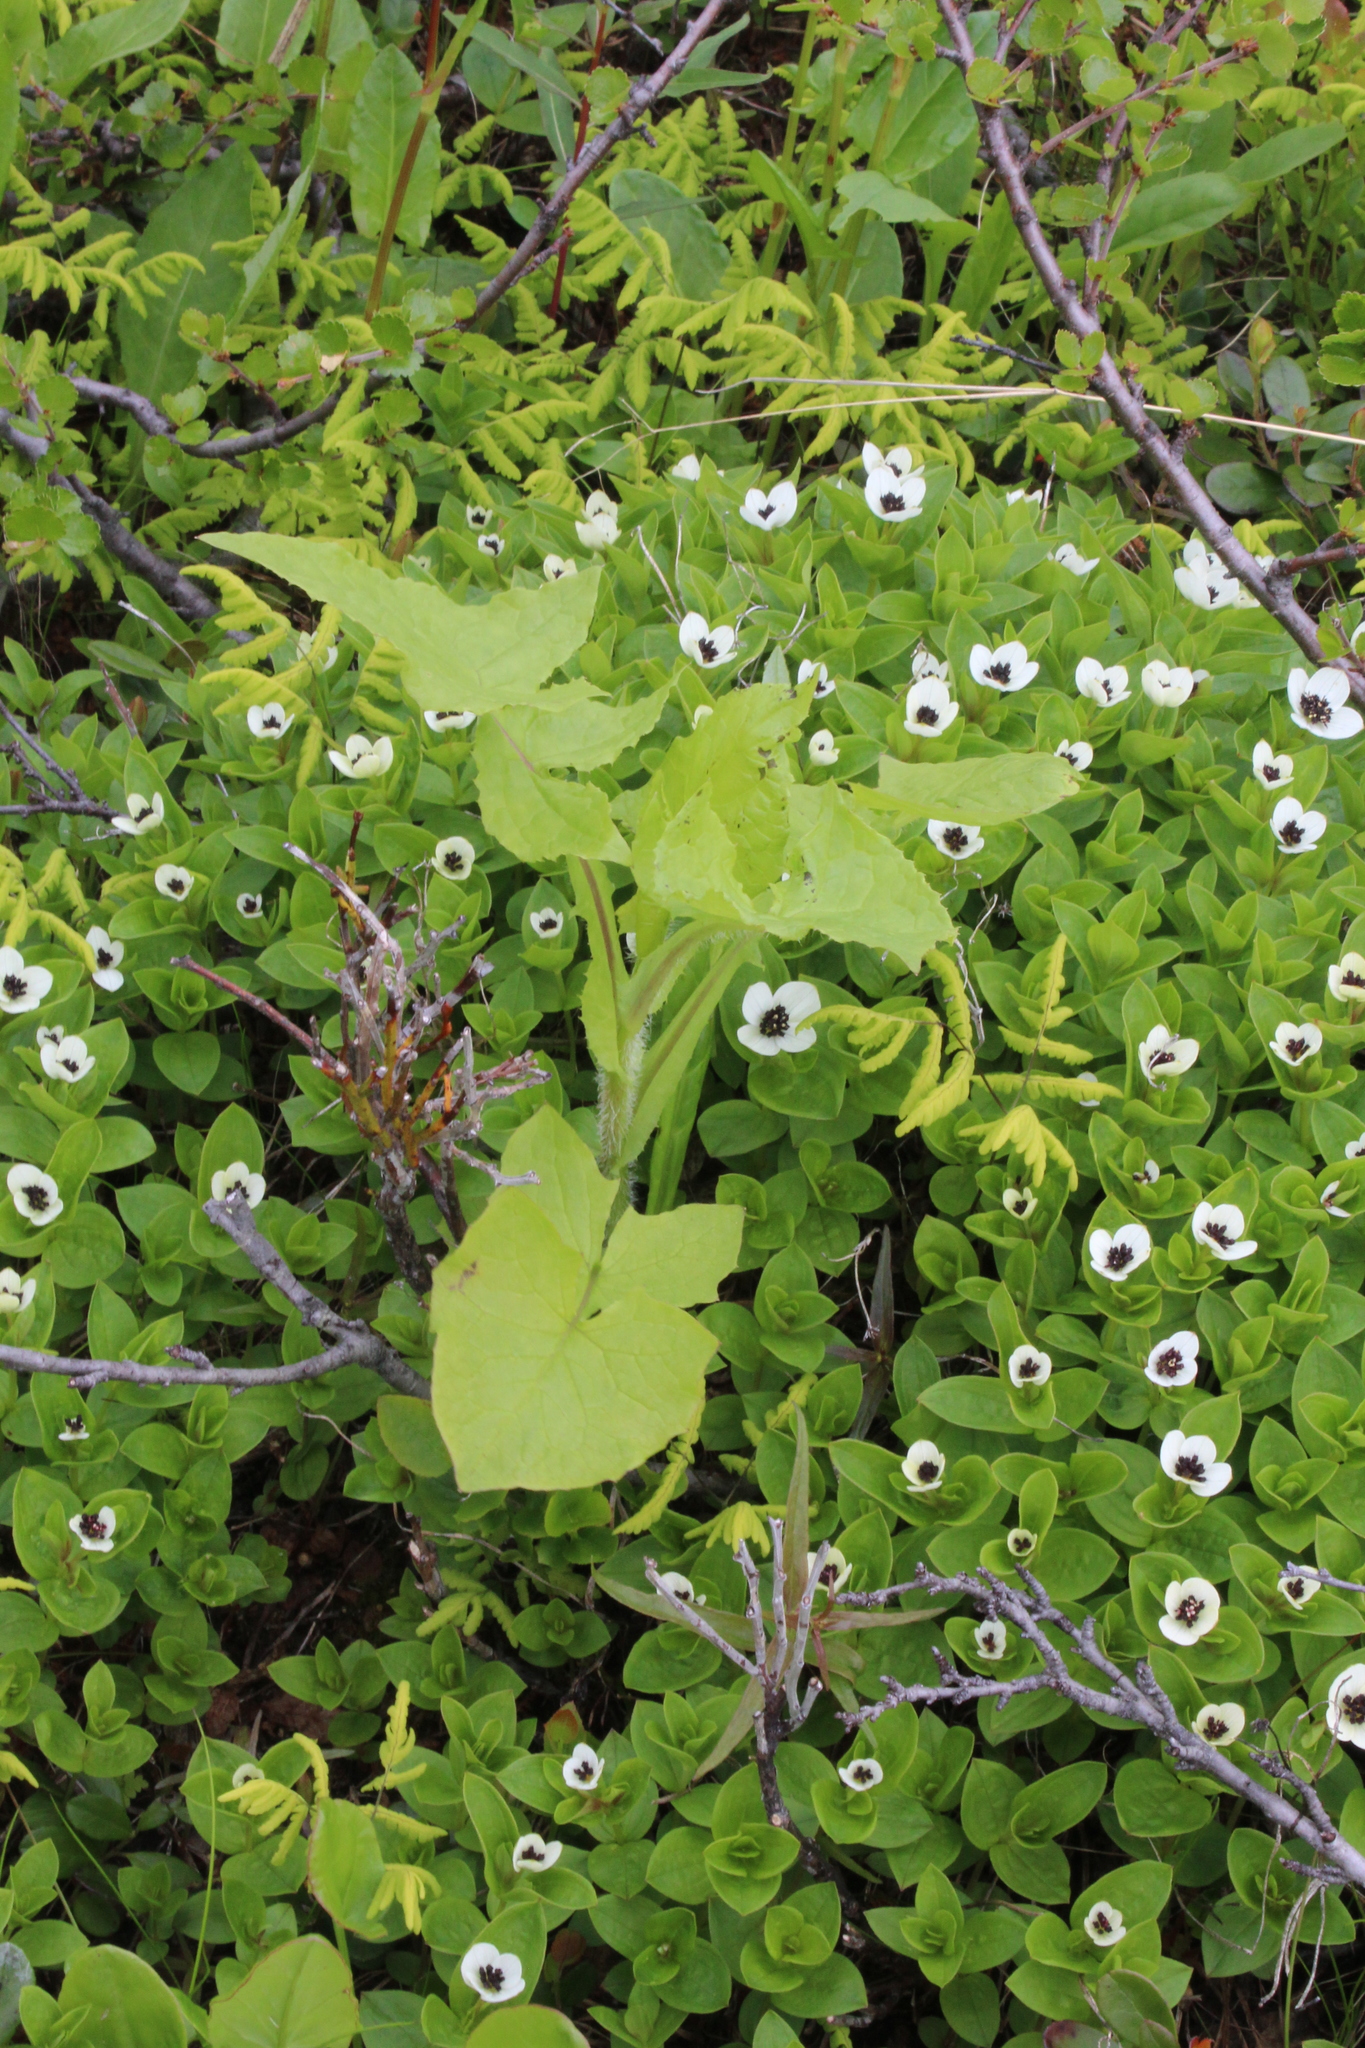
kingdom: Plantae
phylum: Tracheophyta
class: Magnoliopsida
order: Asterales
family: Asteraceae
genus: Cicerbita
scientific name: Cicerbita alpina
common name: Alpine blue-sow-thistle
